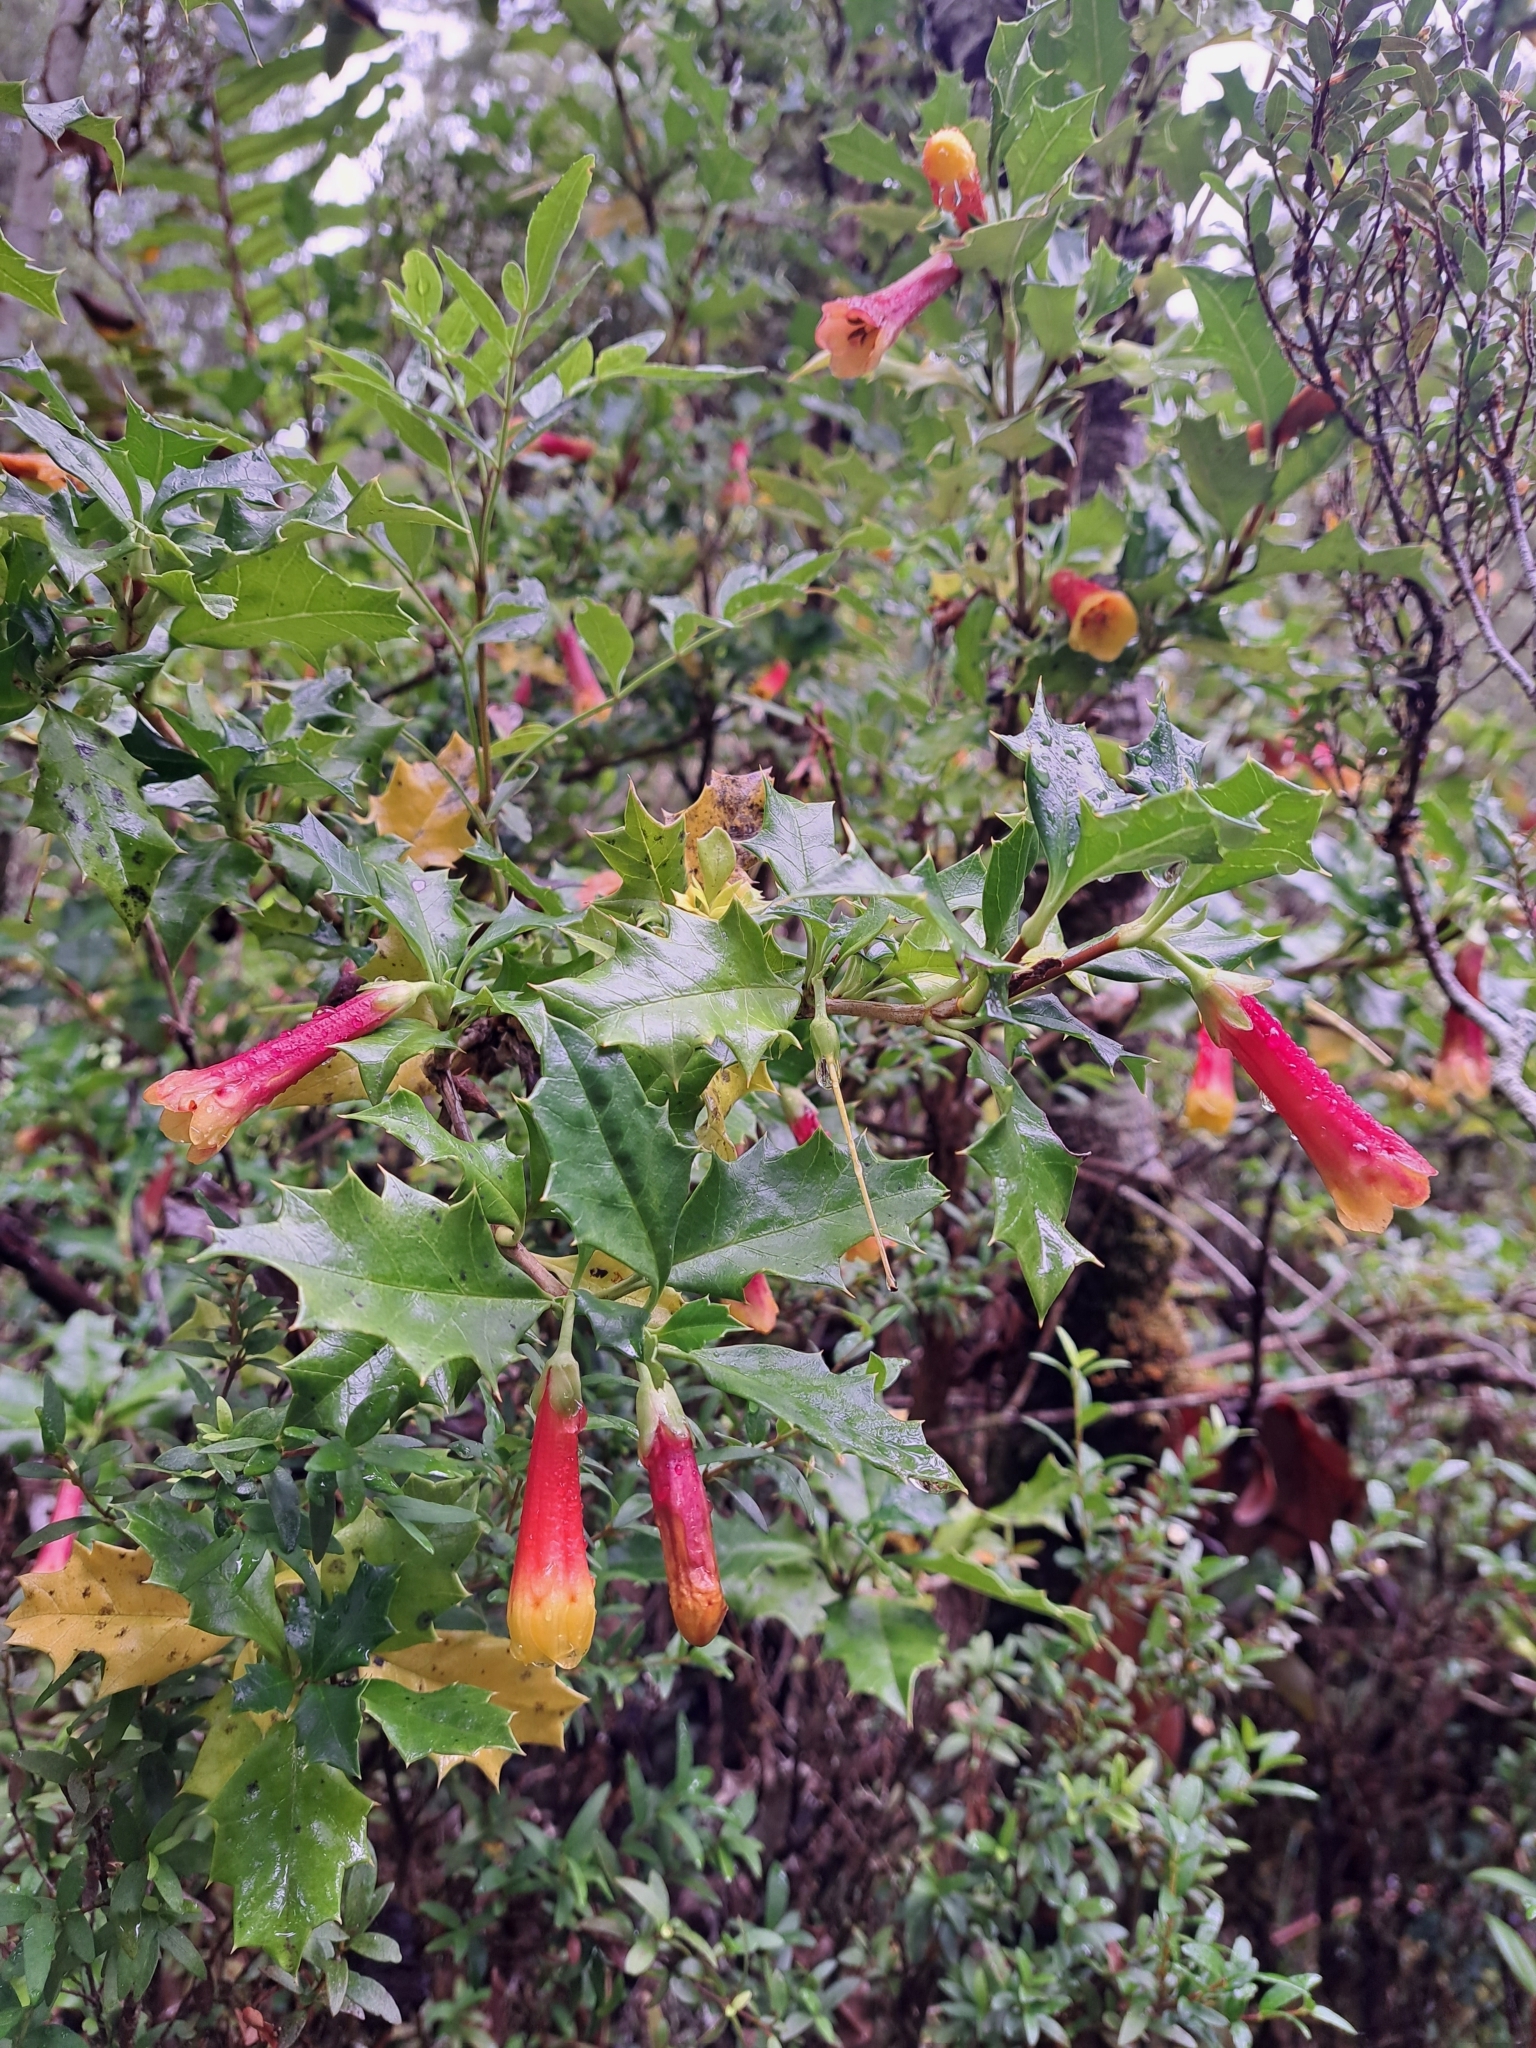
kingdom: Plantae
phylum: Tracheophyta
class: Magnoliopsida
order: Bruniales
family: Columelliaceae
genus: Desfontainia
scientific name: Desfontainia fulgens
